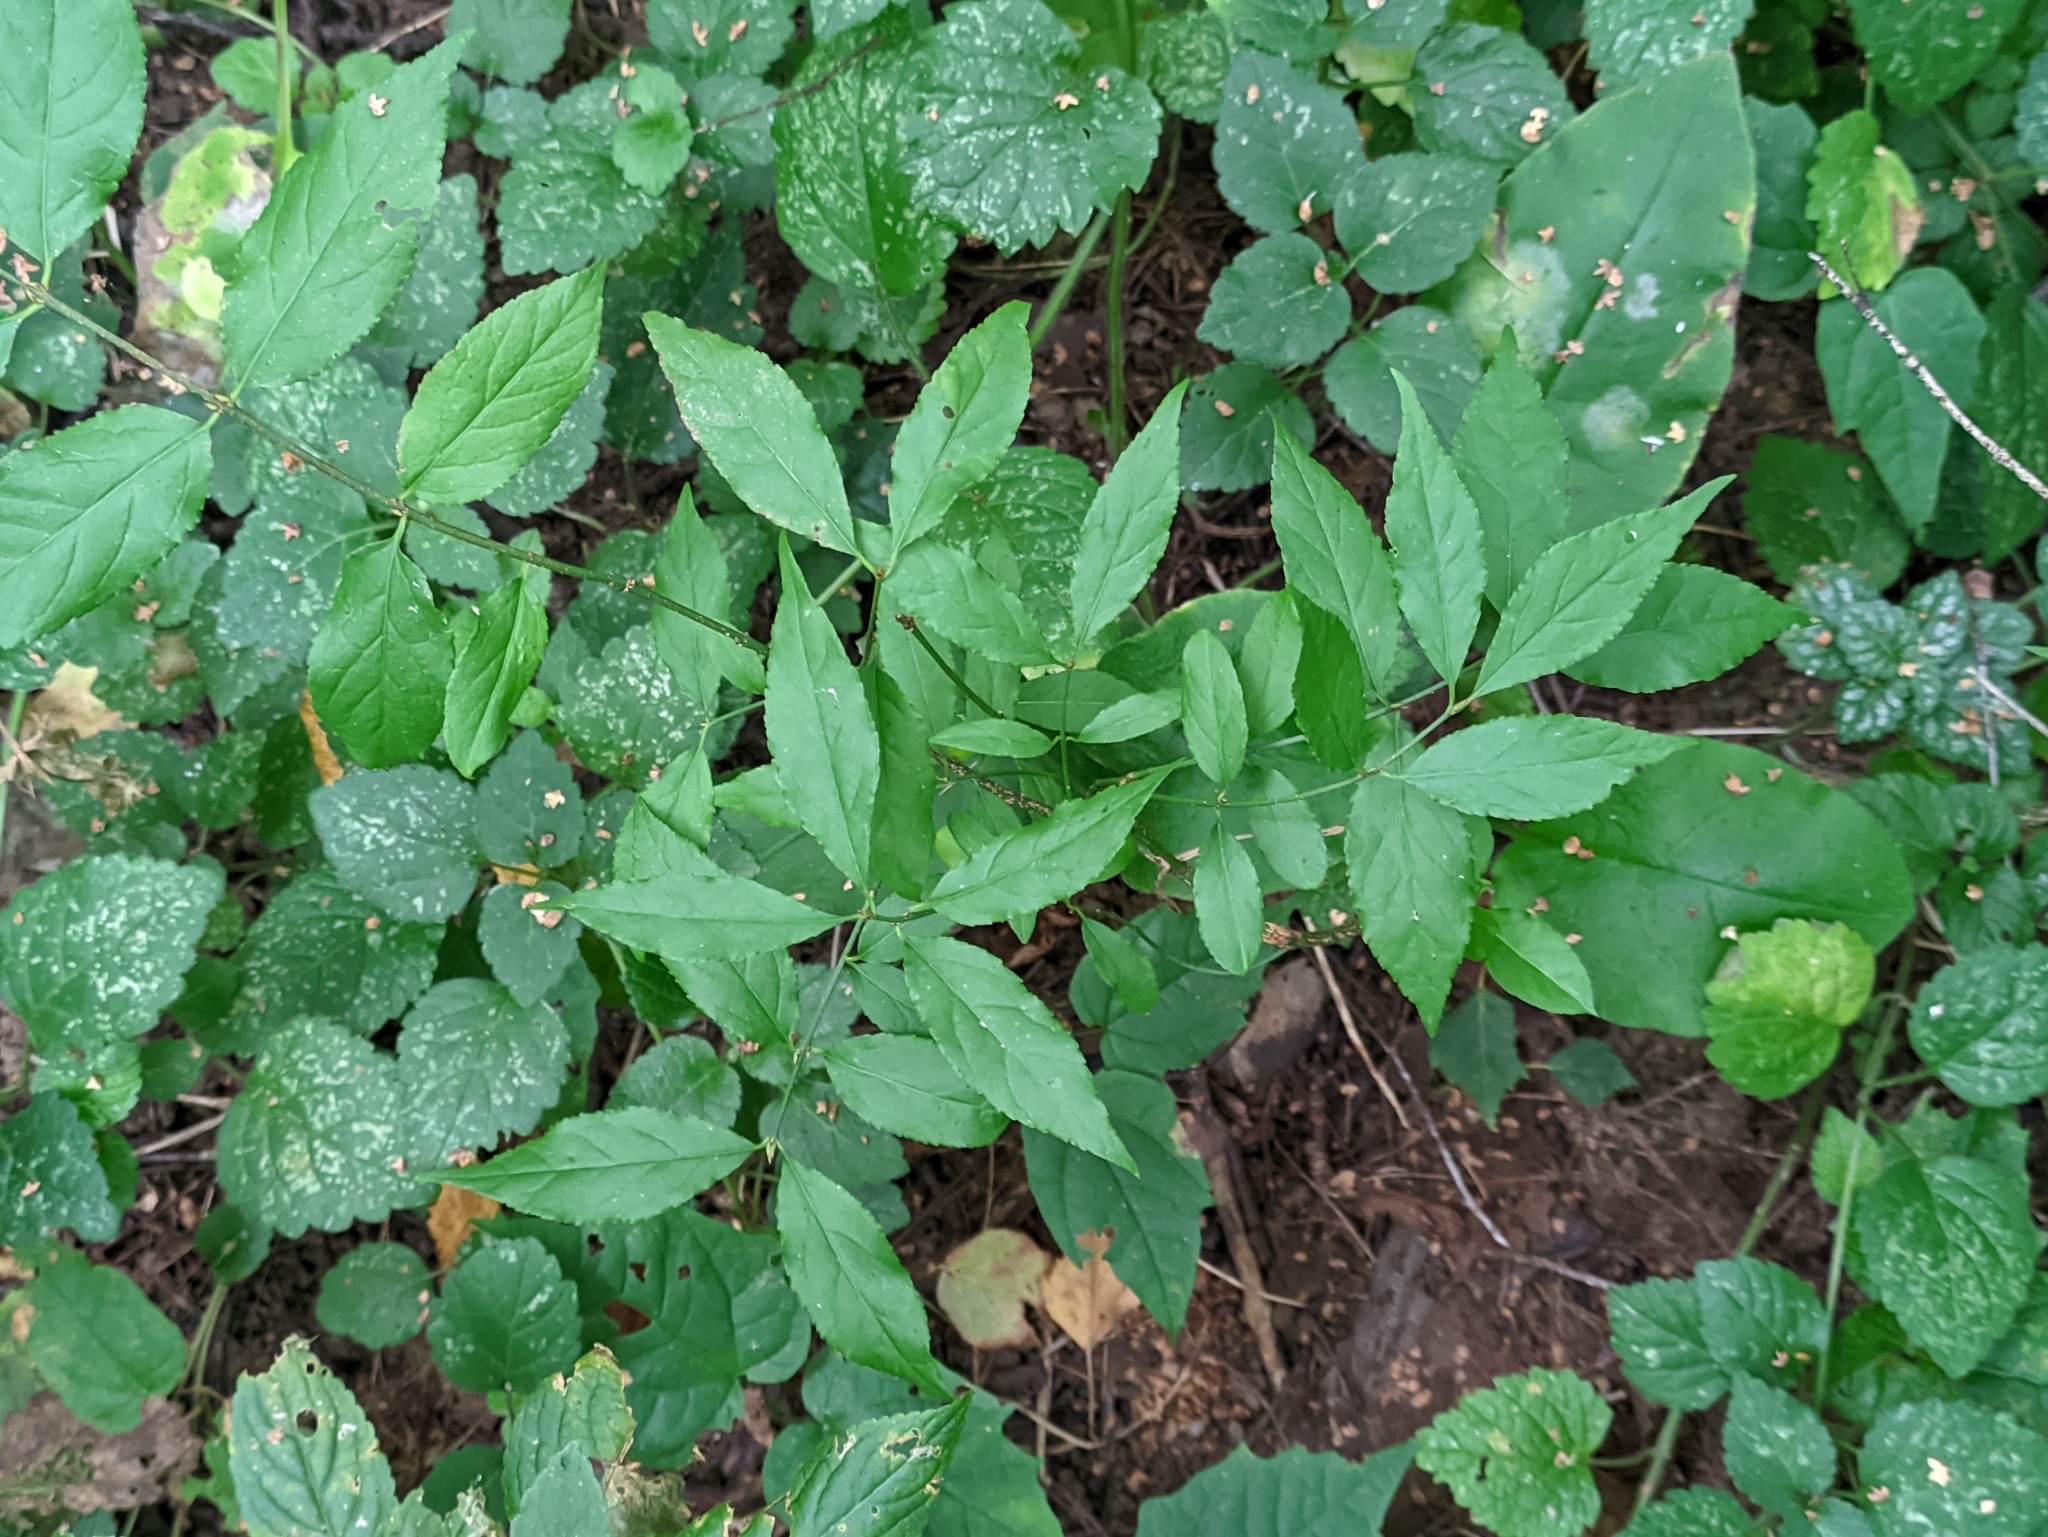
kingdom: Plantae
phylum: Tracheophyta
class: Magnoliopsida
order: Celastrales
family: Celastraceae
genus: Euonymus
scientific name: Euonymus verrucosus
